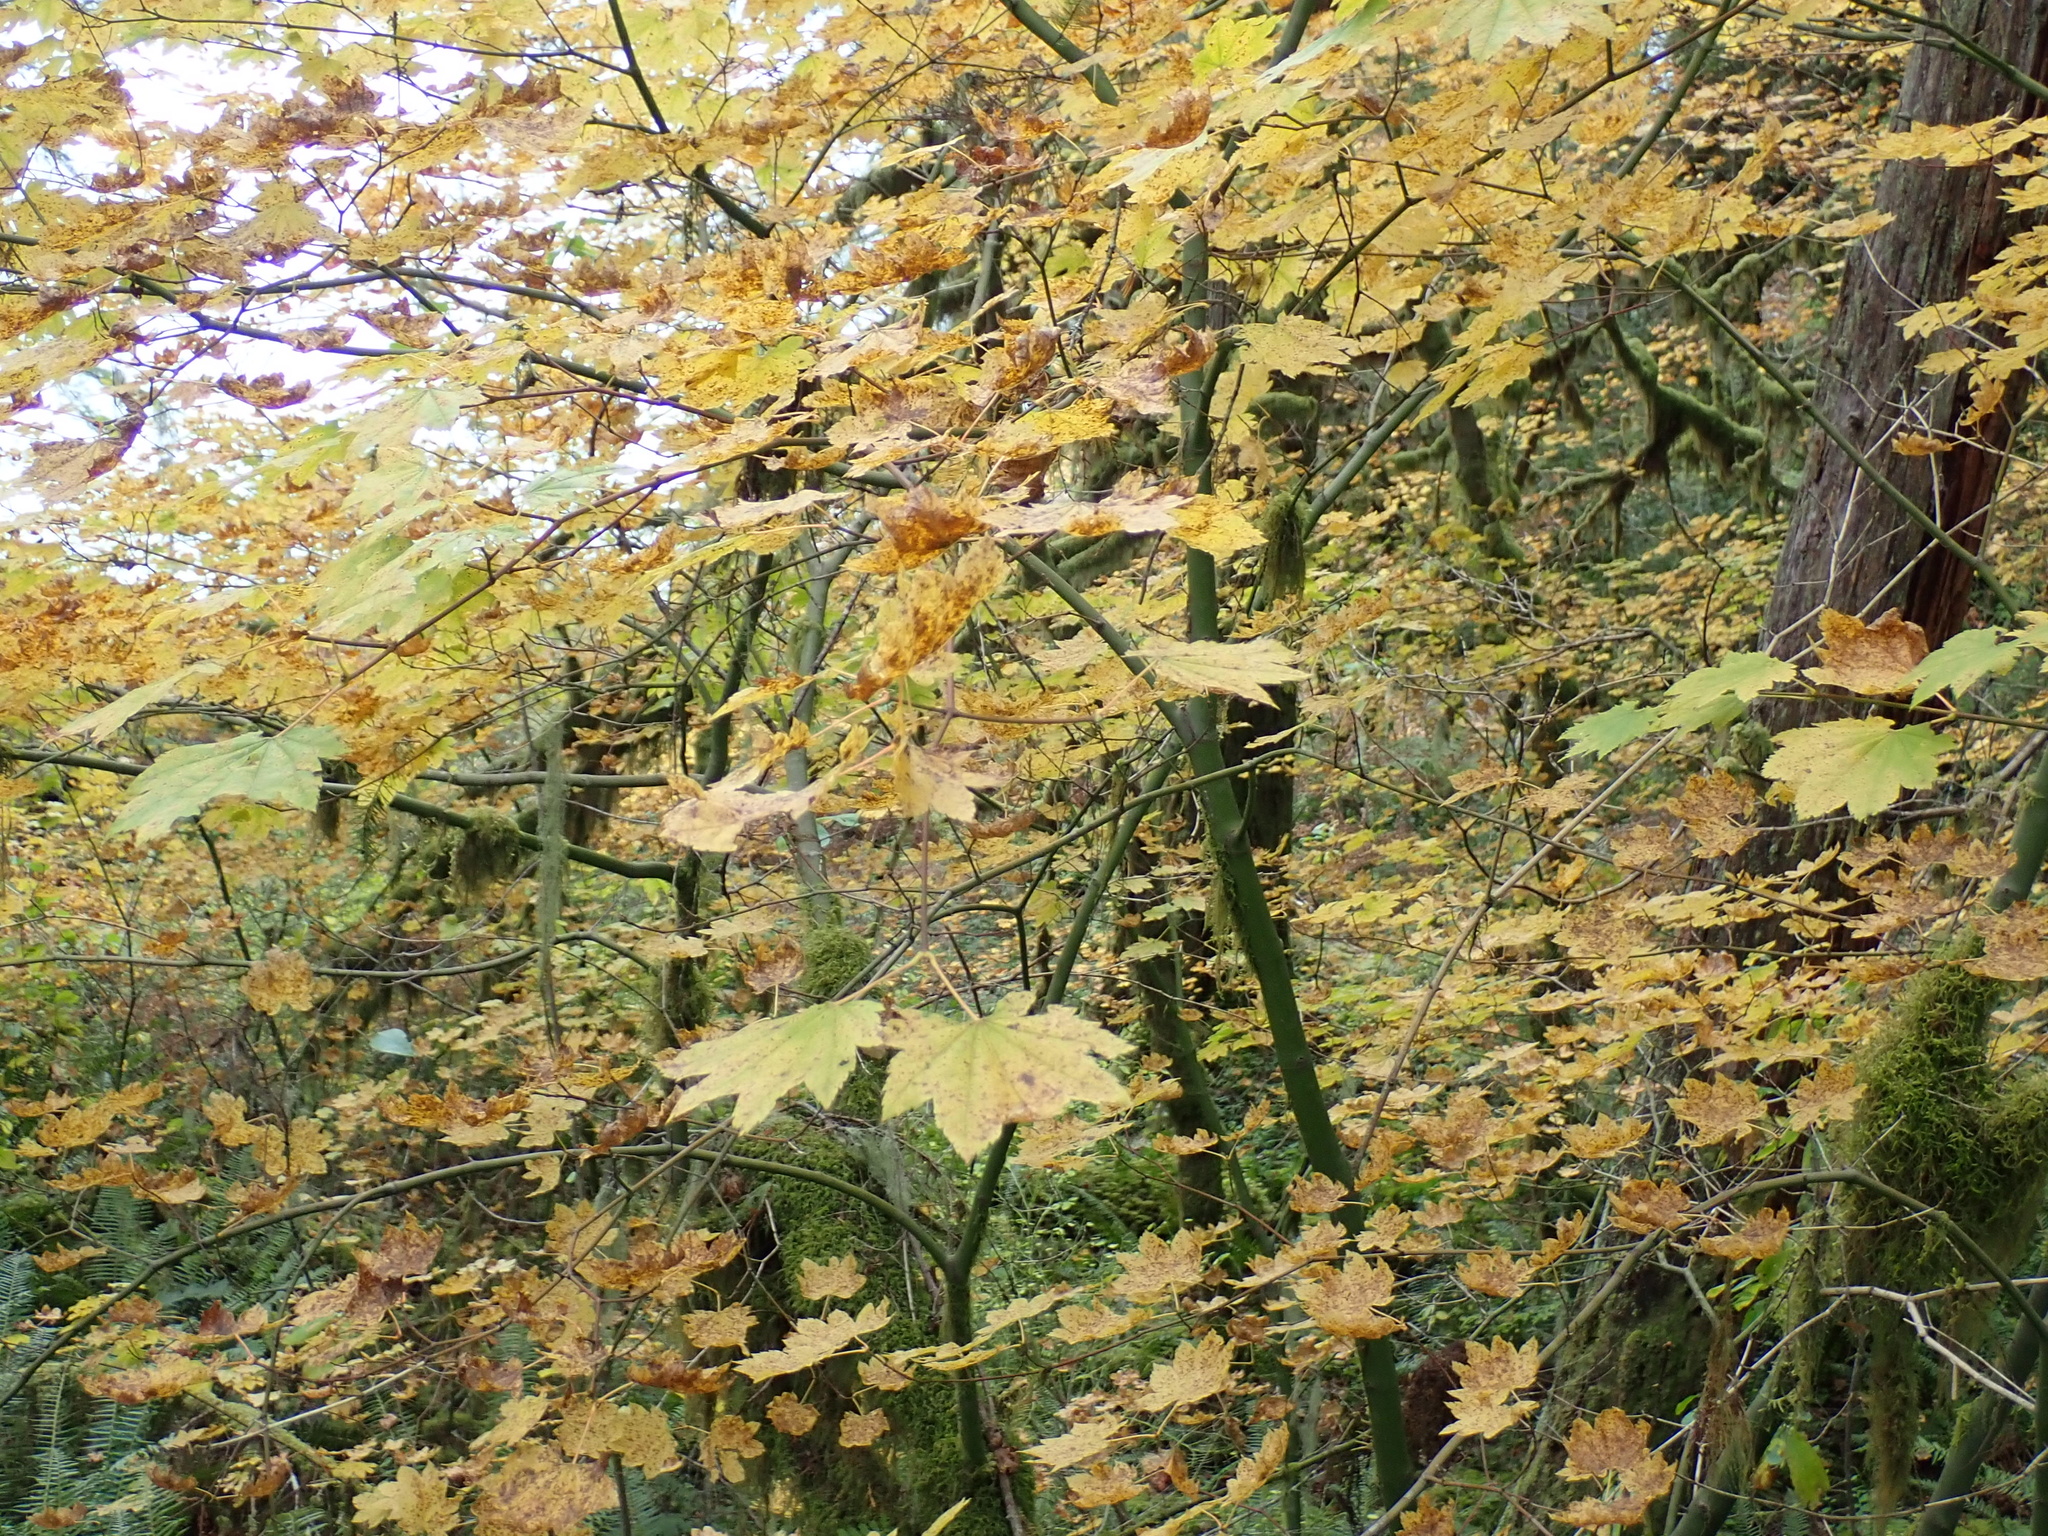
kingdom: Plantae
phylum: Tracheophyta
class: Magnoliopsida
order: Sapindales
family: Sapindaceae
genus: Acer
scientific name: Acer circinatum
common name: Vine maple
